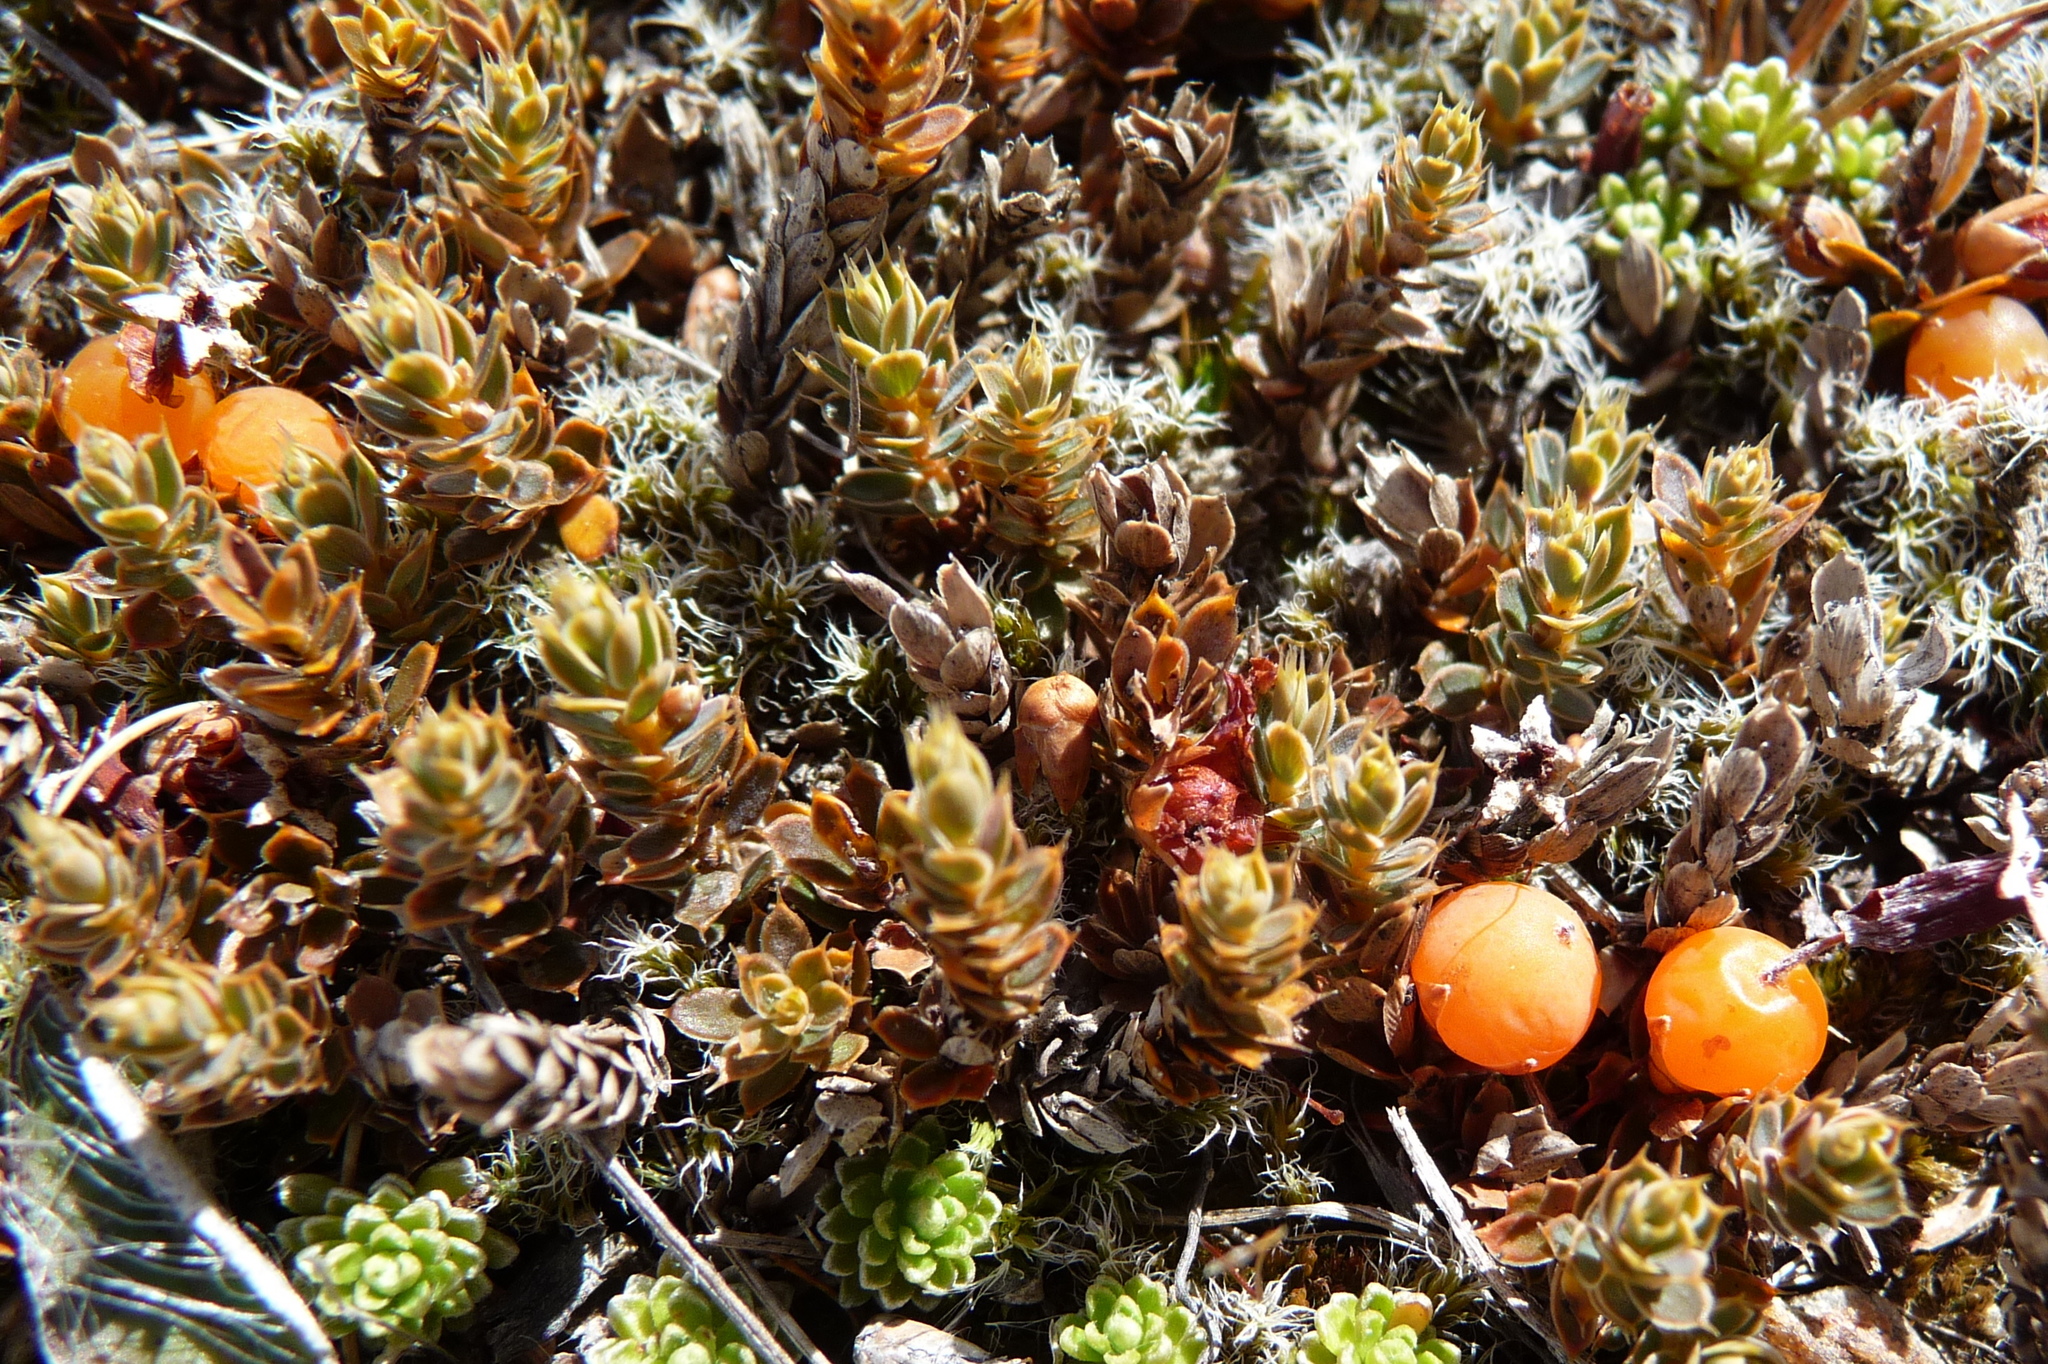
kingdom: Plantae
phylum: Tracheophyta
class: Magnoliopsida
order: Ericales
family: Ericaceae
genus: Styphelia
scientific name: Styphelia nesophila
